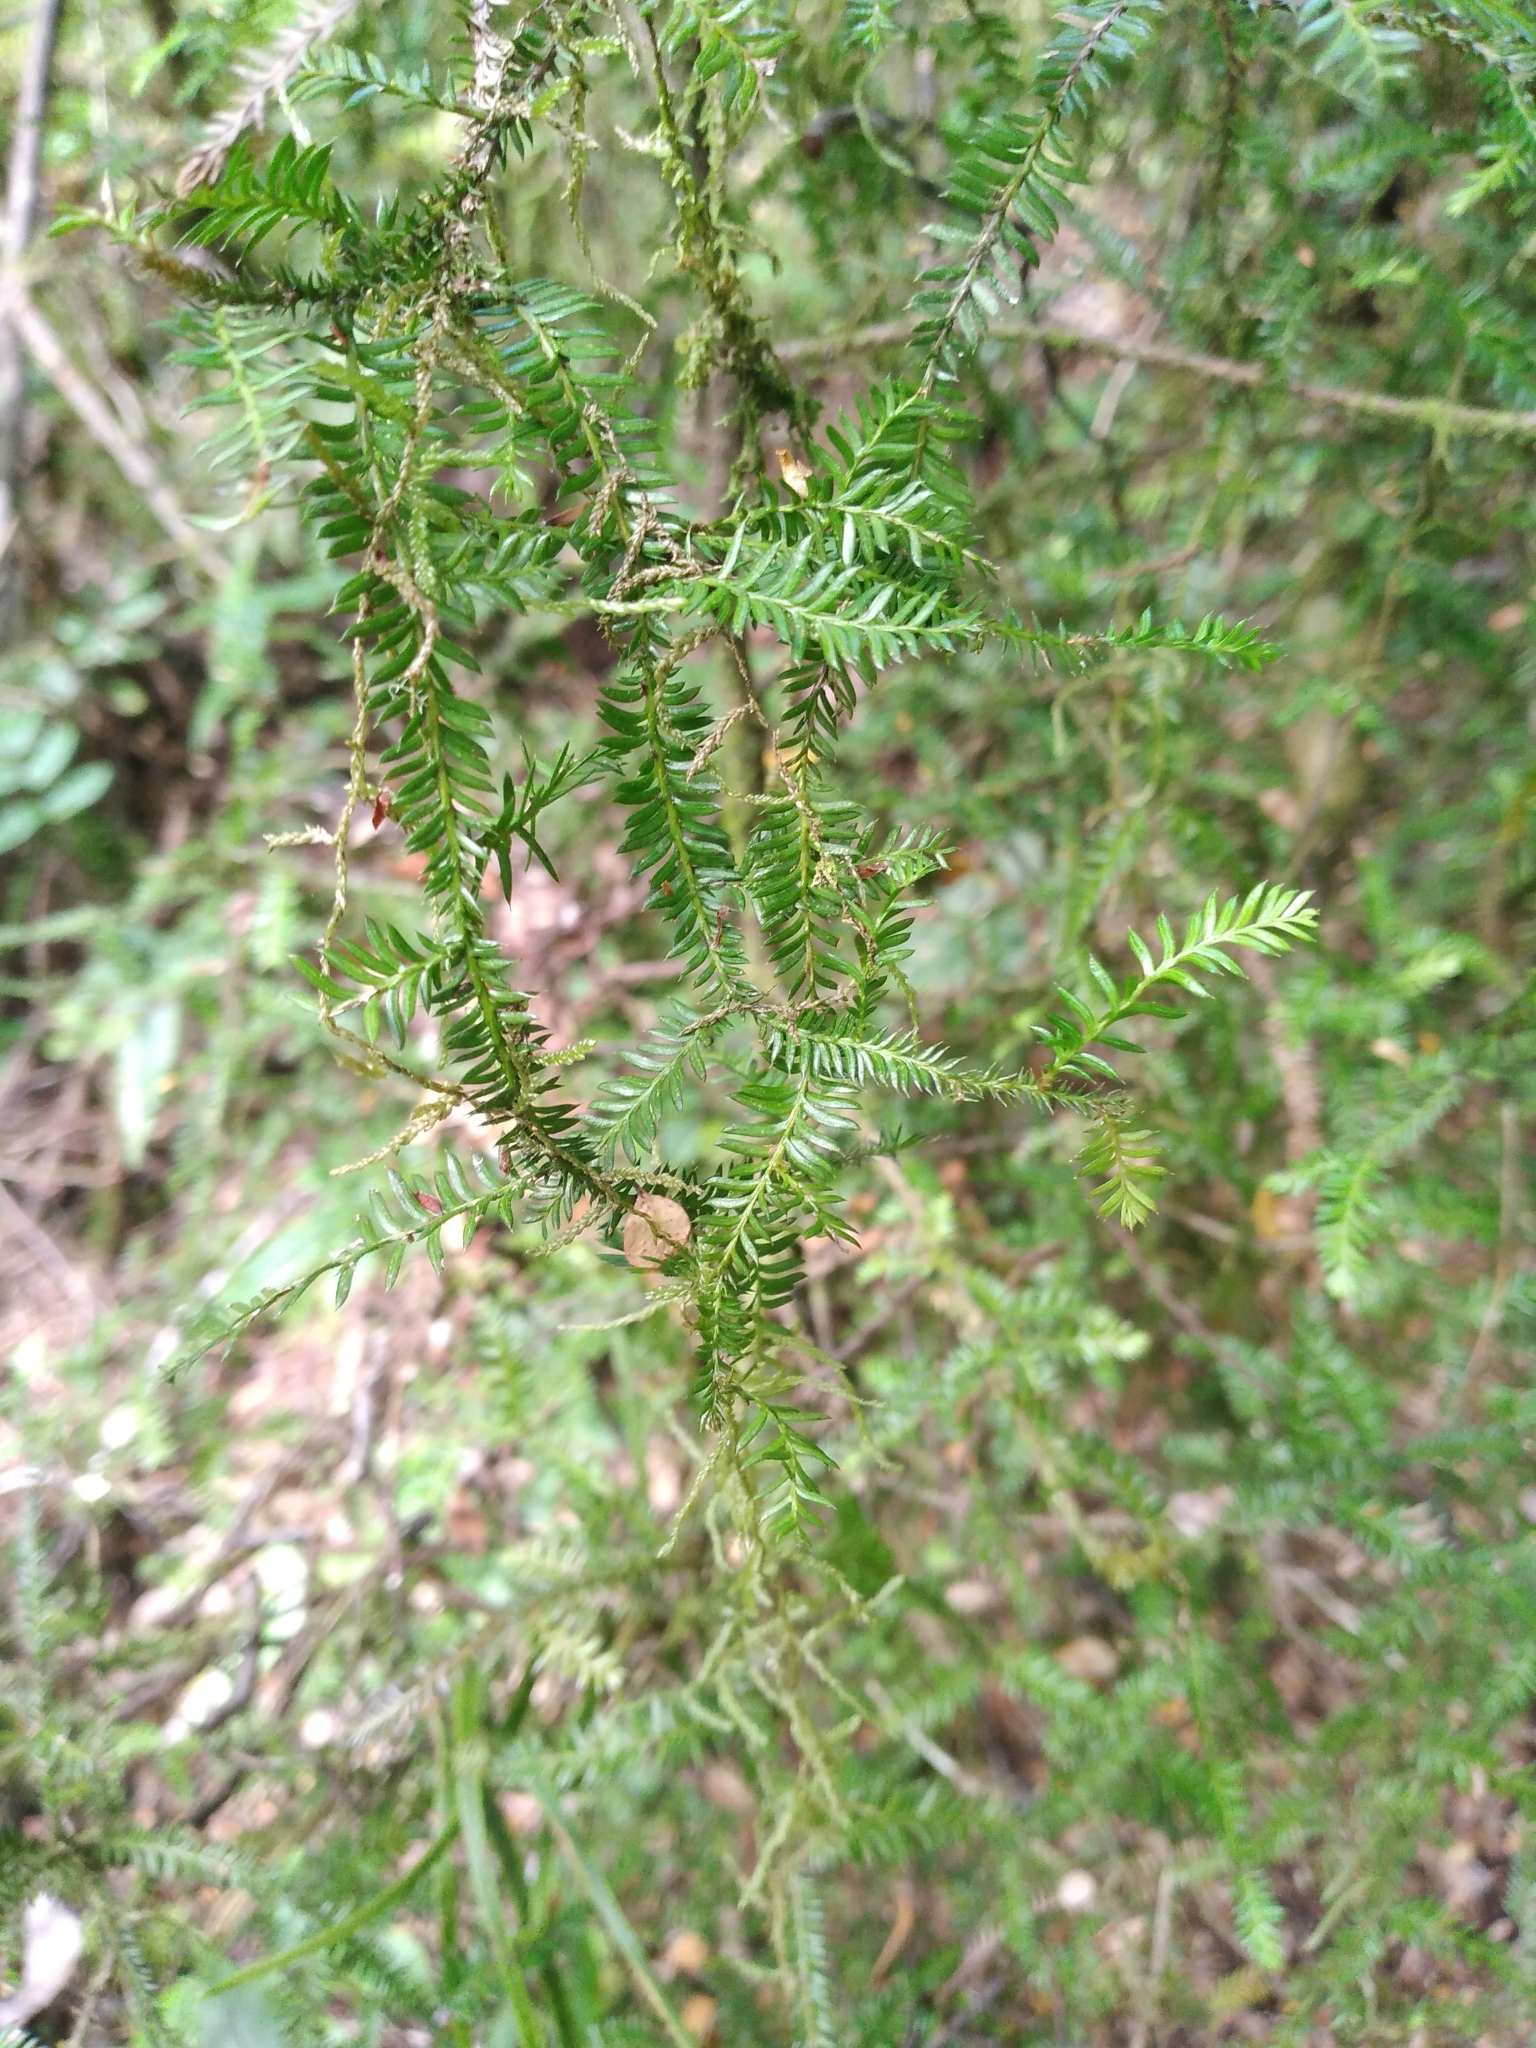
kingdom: Plantae
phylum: Tracheophyta
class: Pinopsida
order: Pinales
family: Podocarpaceae
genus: Dacrycarpus
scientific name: Dacrycarpus dacrydioides
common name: White pine
